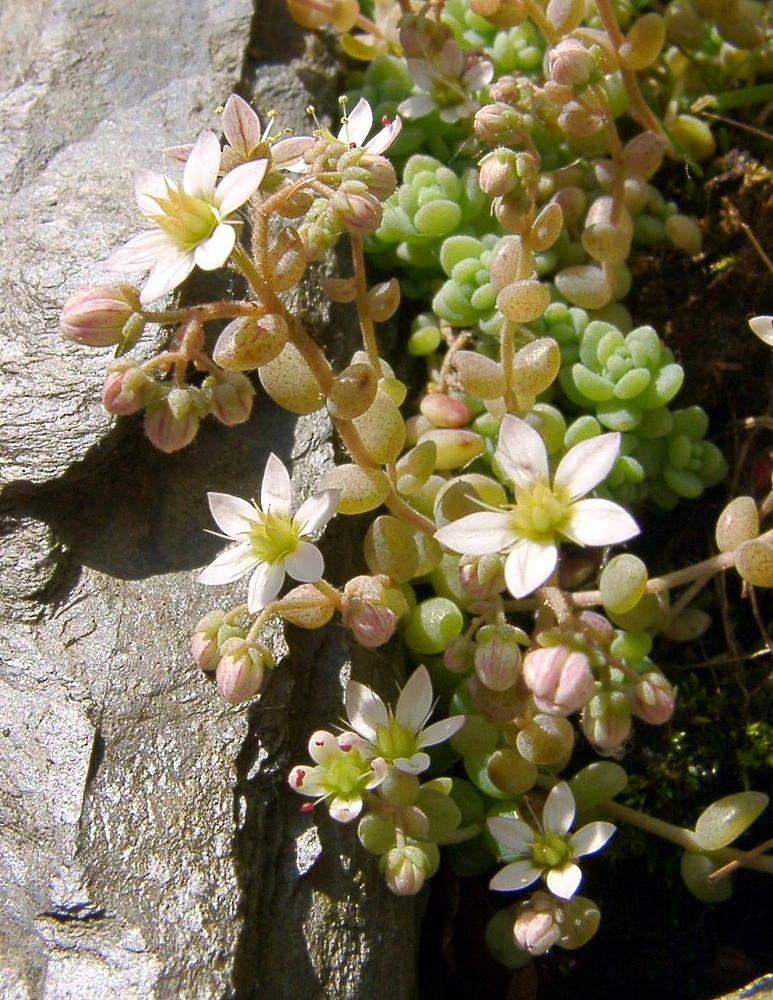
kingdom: Plantae
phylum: Tracheophyta
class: Magnoliopsida
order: Saxifragales
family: Crassulaceae
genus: Sedum
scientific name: Sedum dasyphyllum
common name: Thick-leaf stonecrop
